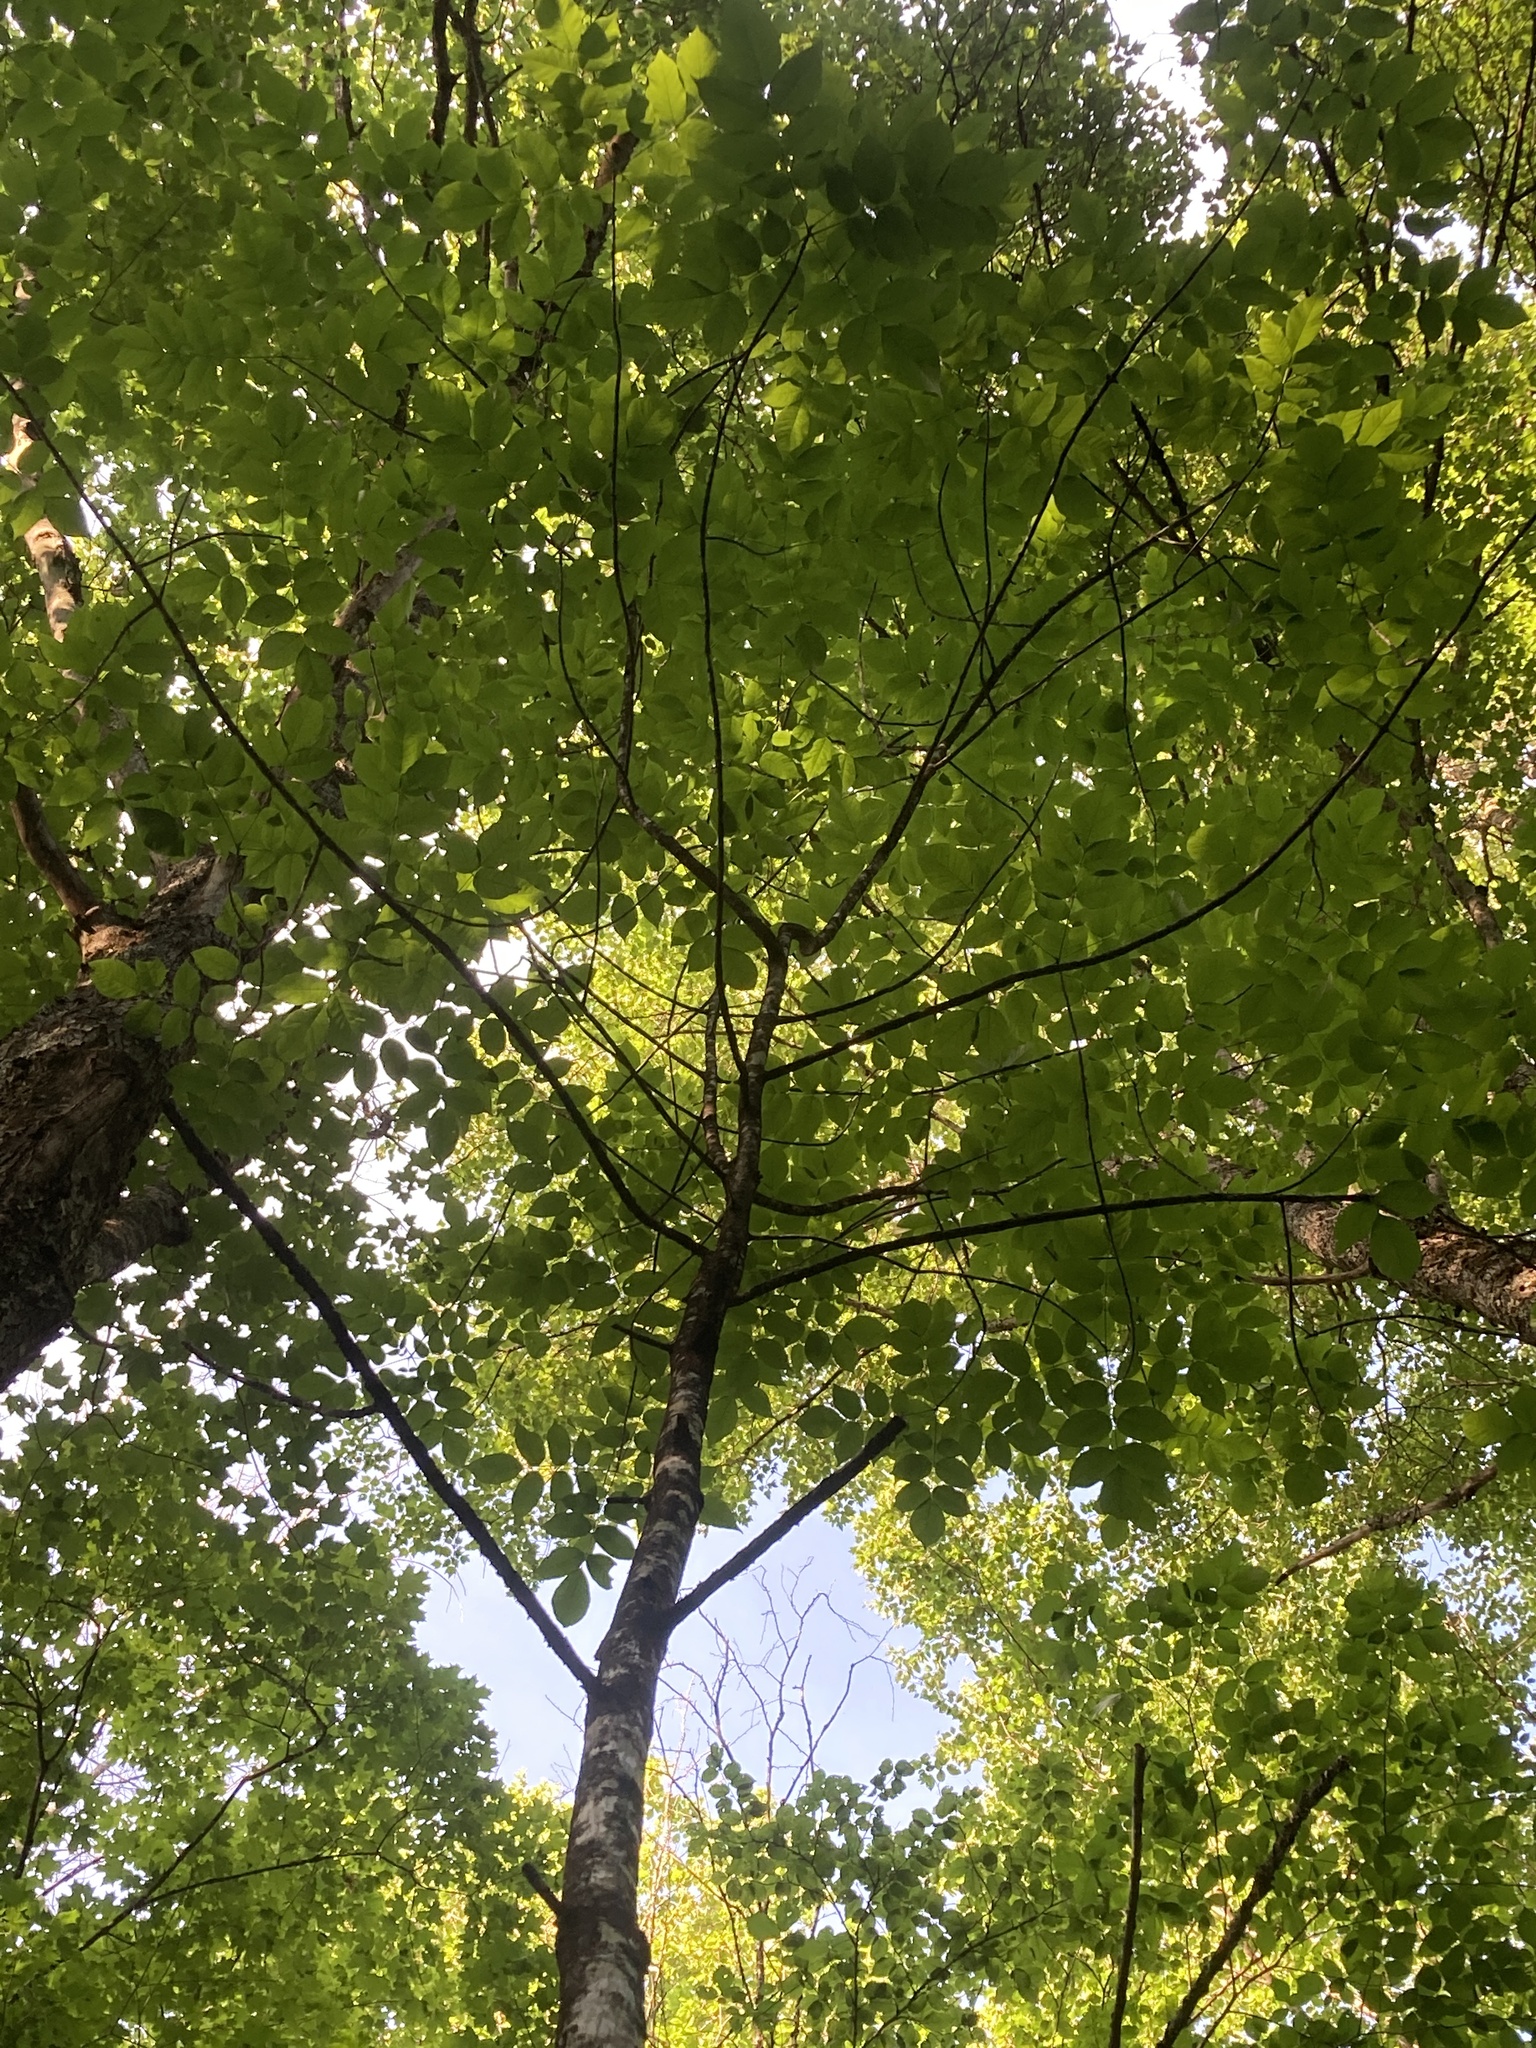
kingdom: Plantae
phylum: Tracheophyta
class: Magnoliopsida
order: Lamiales
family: Oleaceae
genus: Fraxinus
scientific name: Fraxinus nigra
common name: Black ash
